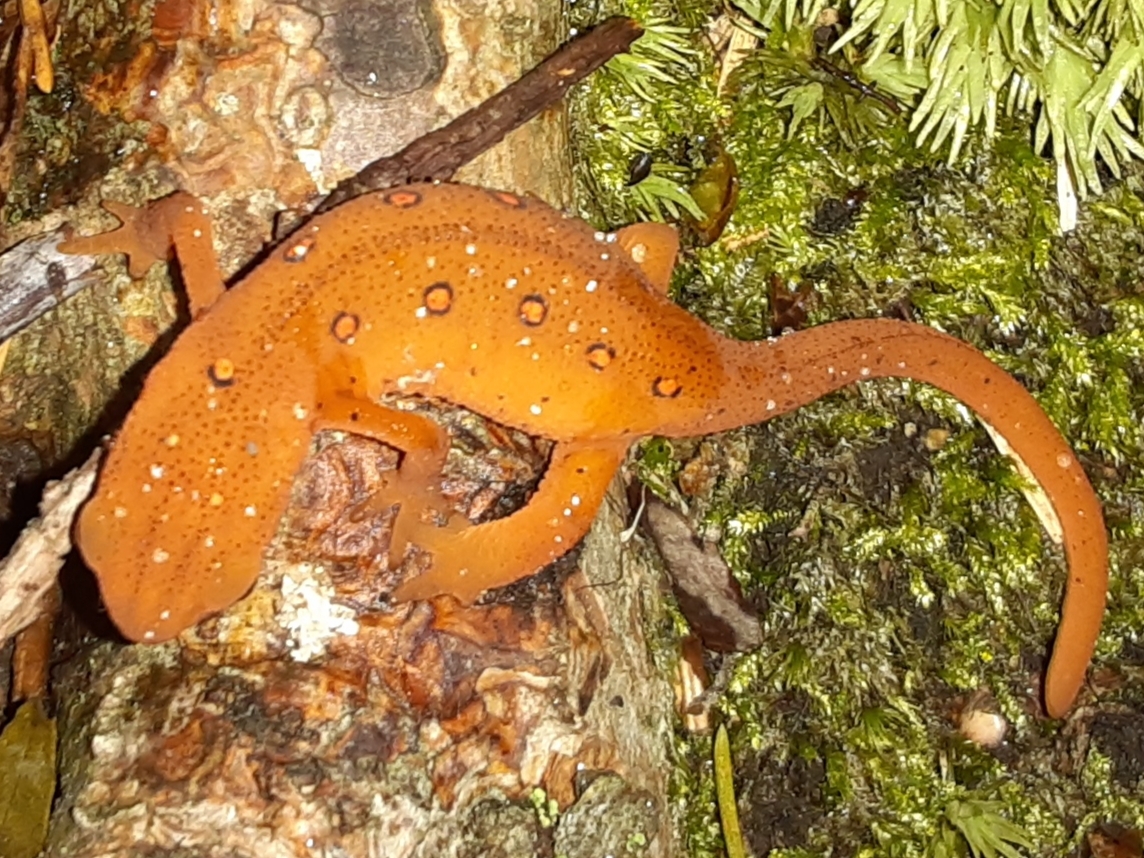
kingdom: Animalia
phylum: Chordata
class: Amphibia
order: Caudata
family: Salamandridae
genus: Notophthalmus
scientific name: Notophthalmus viridescens
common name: Eastern newt
